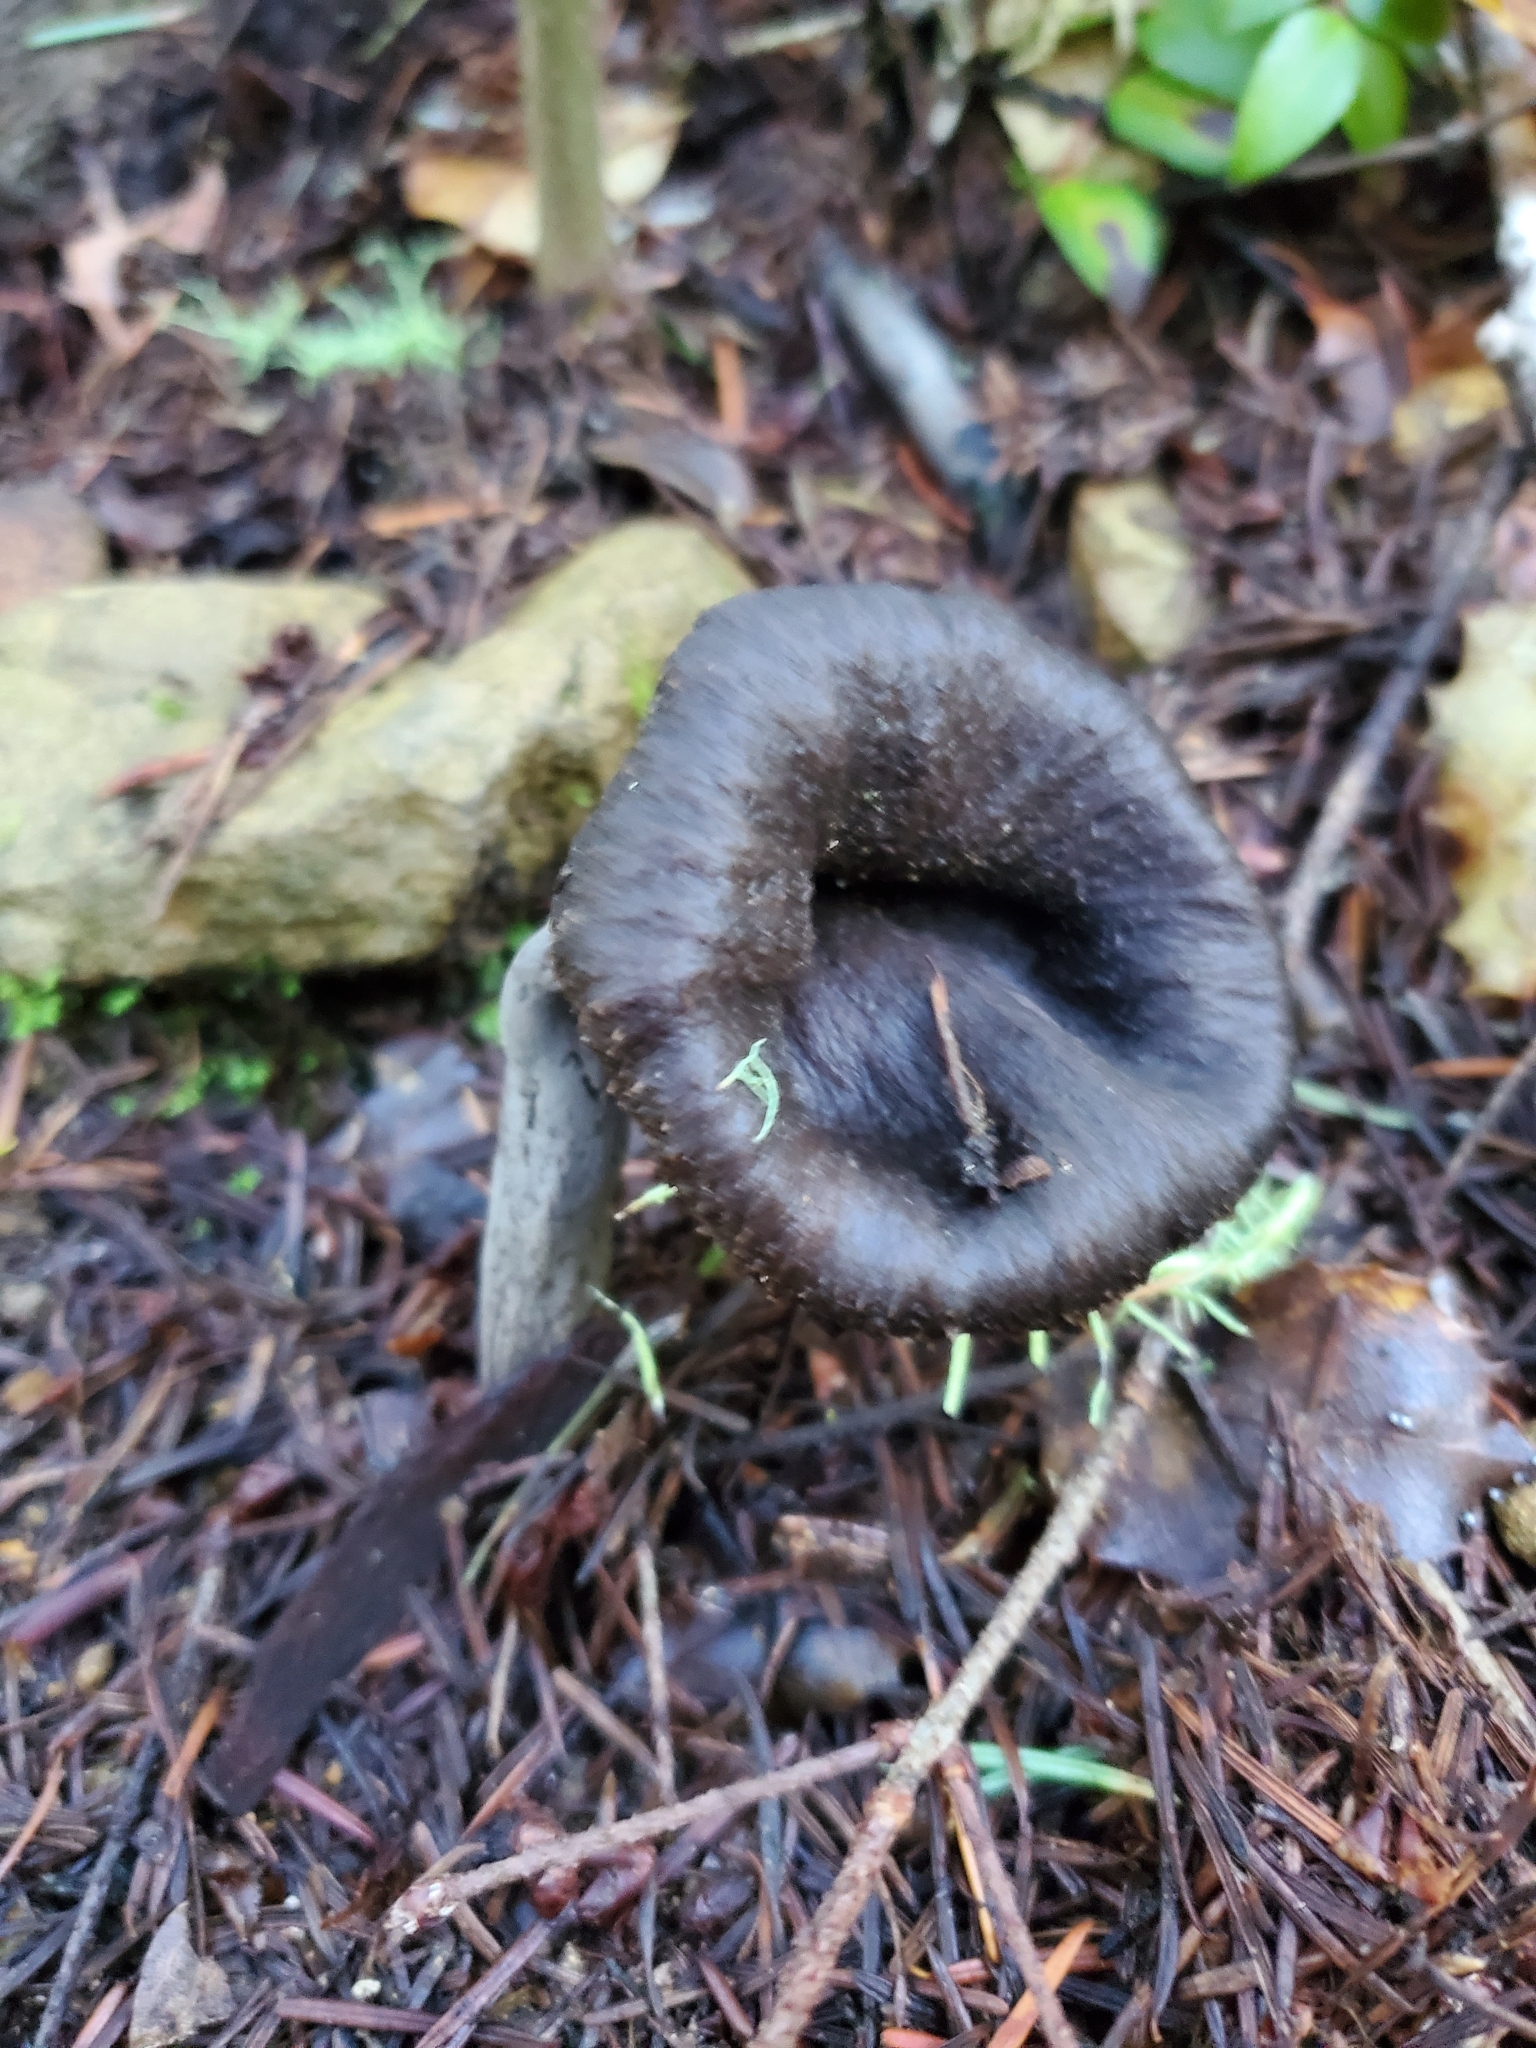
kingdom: Fungi
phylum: Basidiomycota
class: Agaricomycetes
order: Cantharellales
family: Hydnaceae
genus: Craterellus
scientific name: Craterellus calicornucopioides
